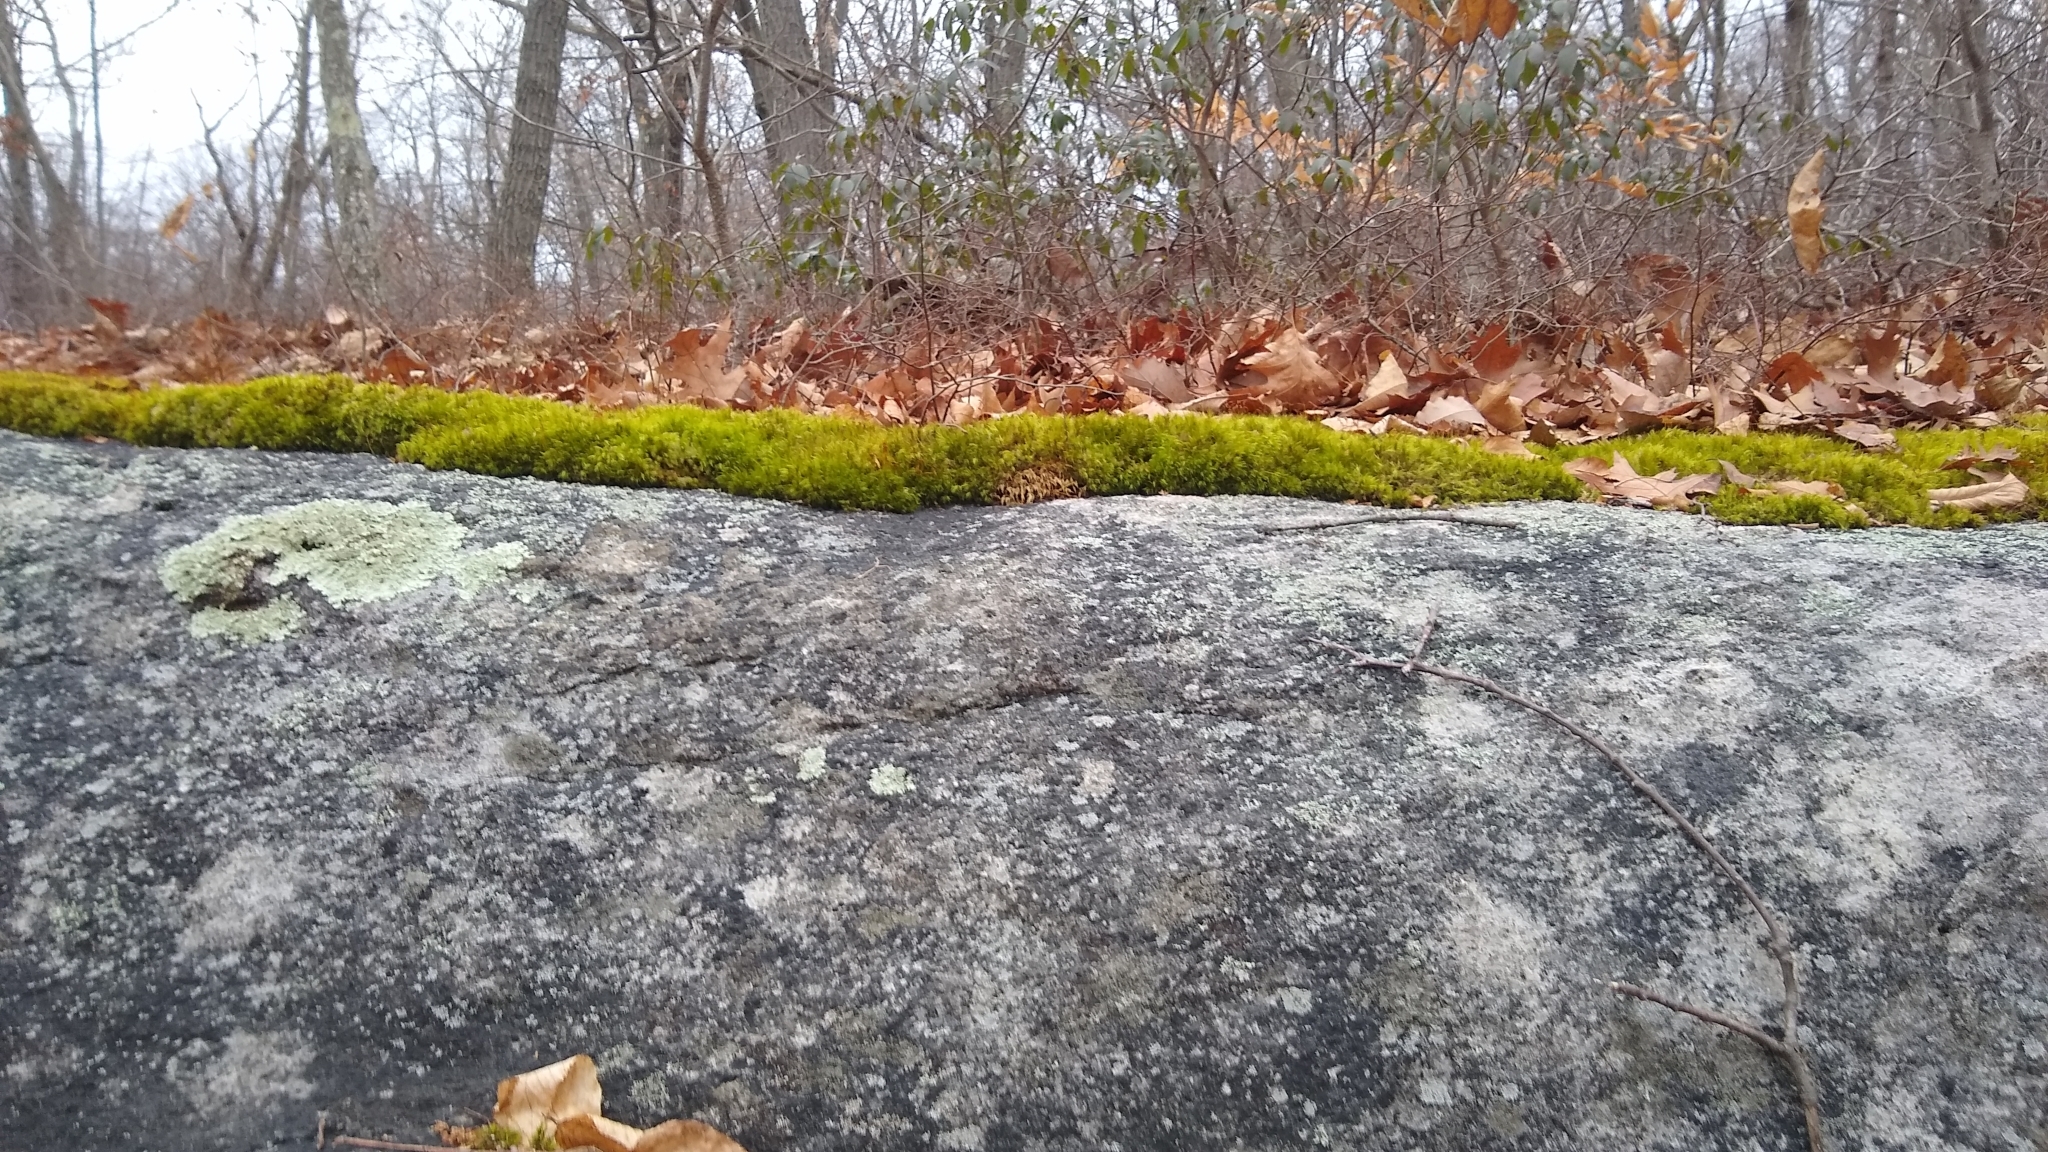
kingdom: Plantae
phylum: Bryophyta
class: Bryopsida
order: Dicranales
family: Dicranaceae
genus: Dicranum
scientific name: Dicranum scoparium
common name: Broom fork-moss
